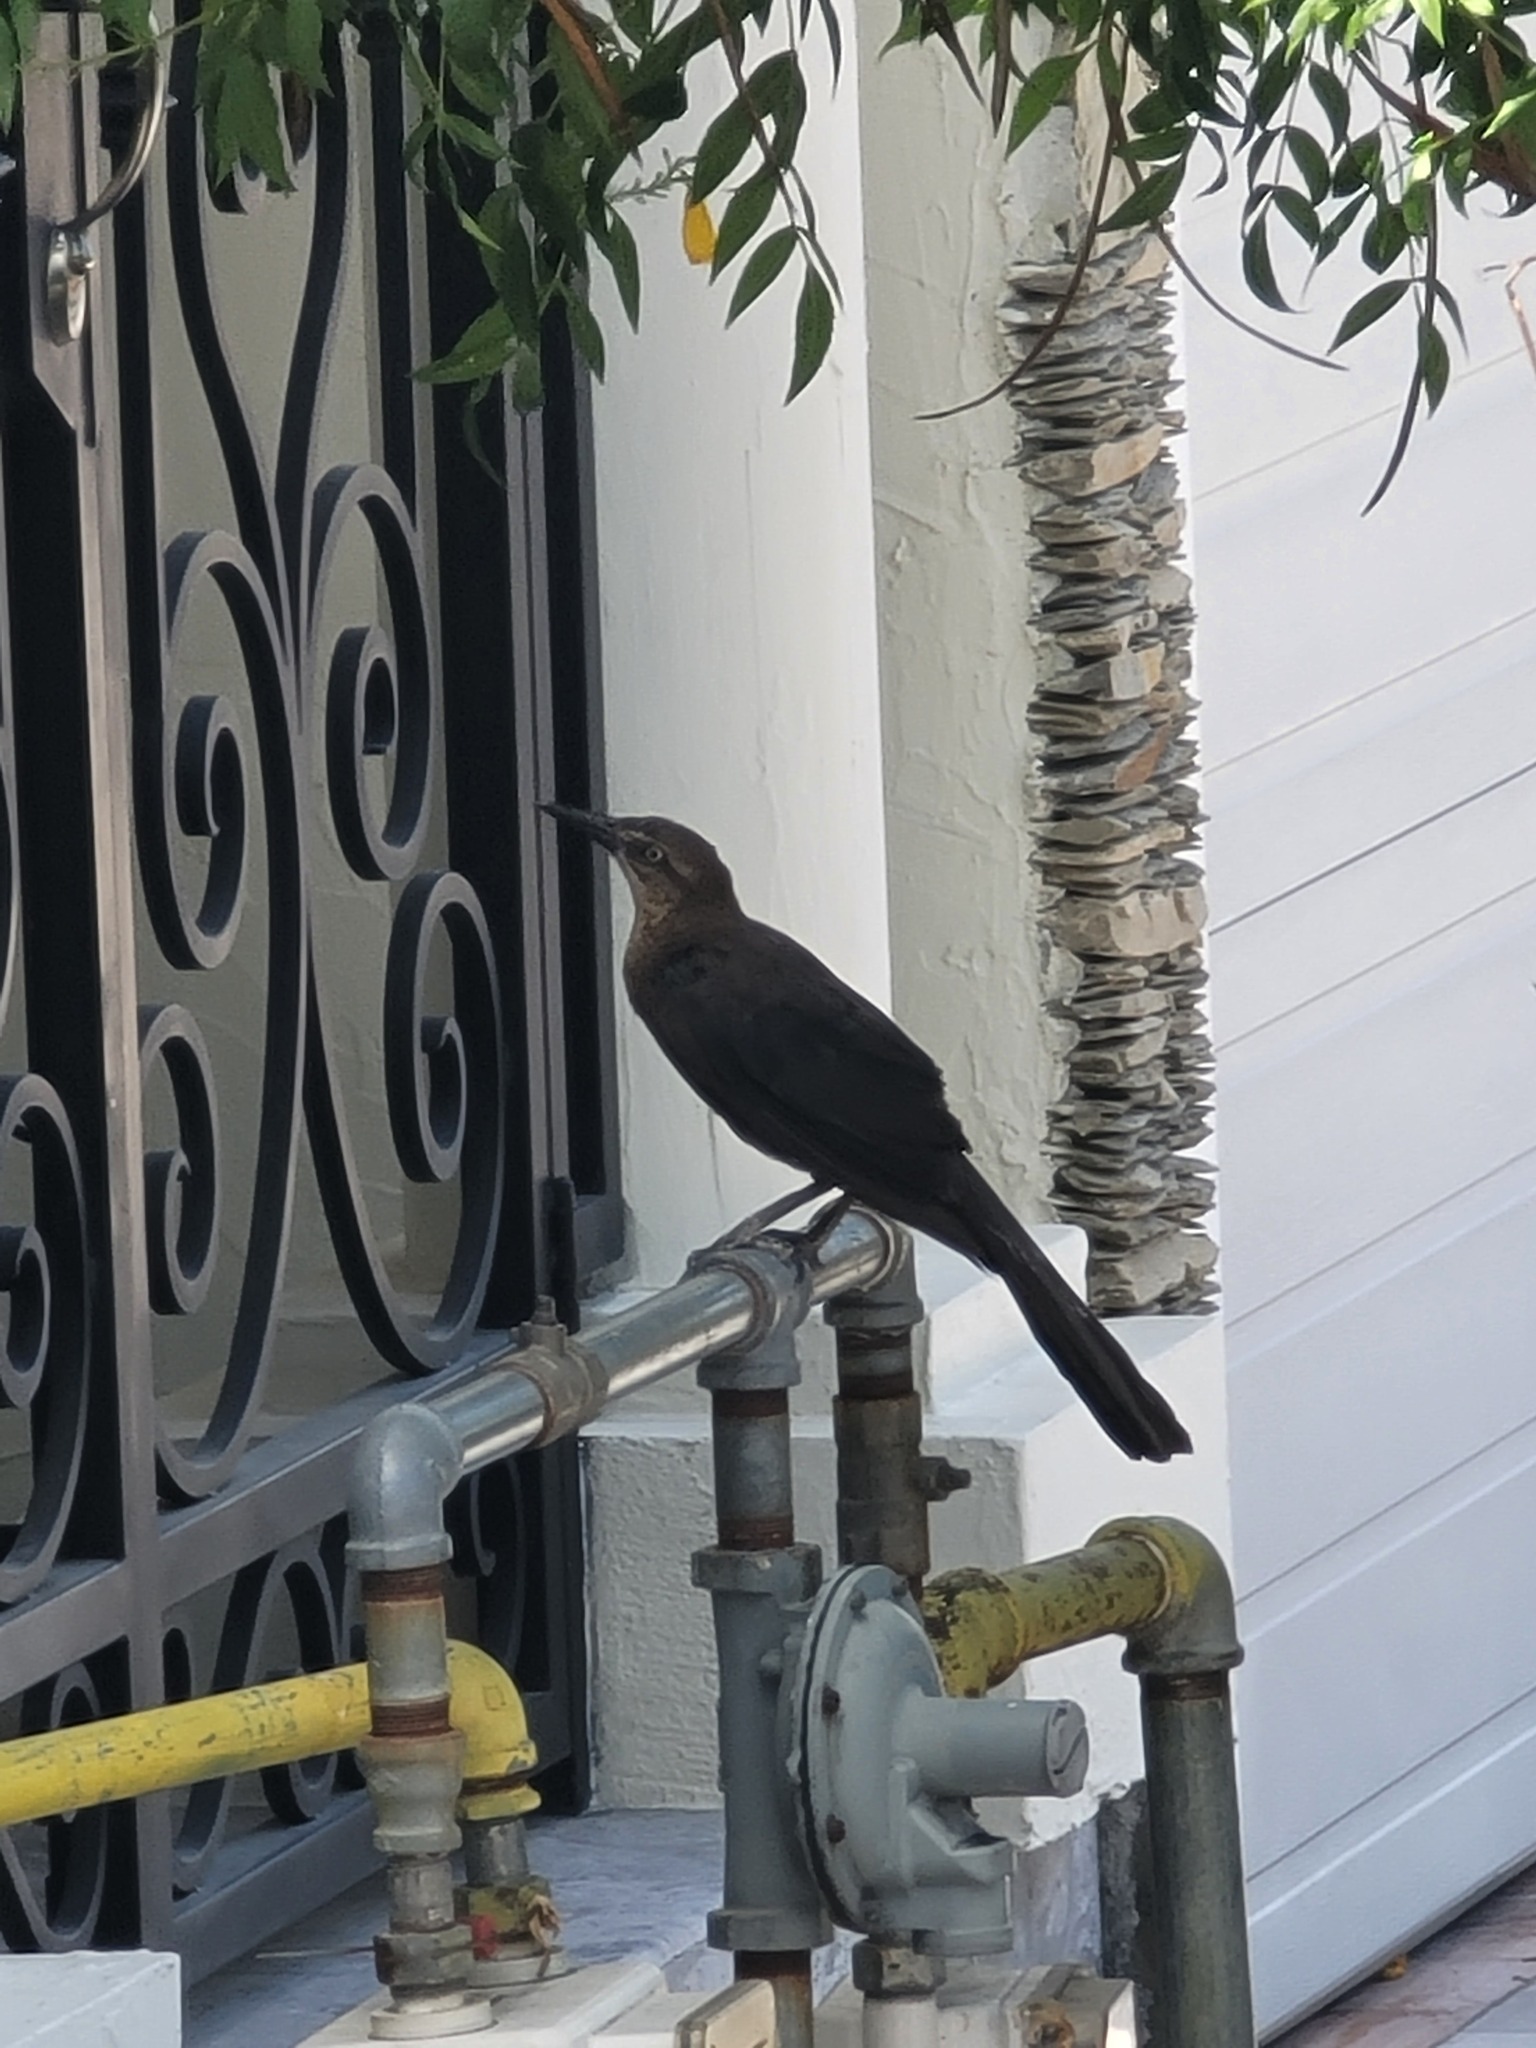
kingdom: Animalia
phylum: Chordata
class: Aves
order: Passeriformes
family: Icteridae
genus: Quiscalus
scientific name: Quiscalus mexicanus
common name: Great-tailed grackle
